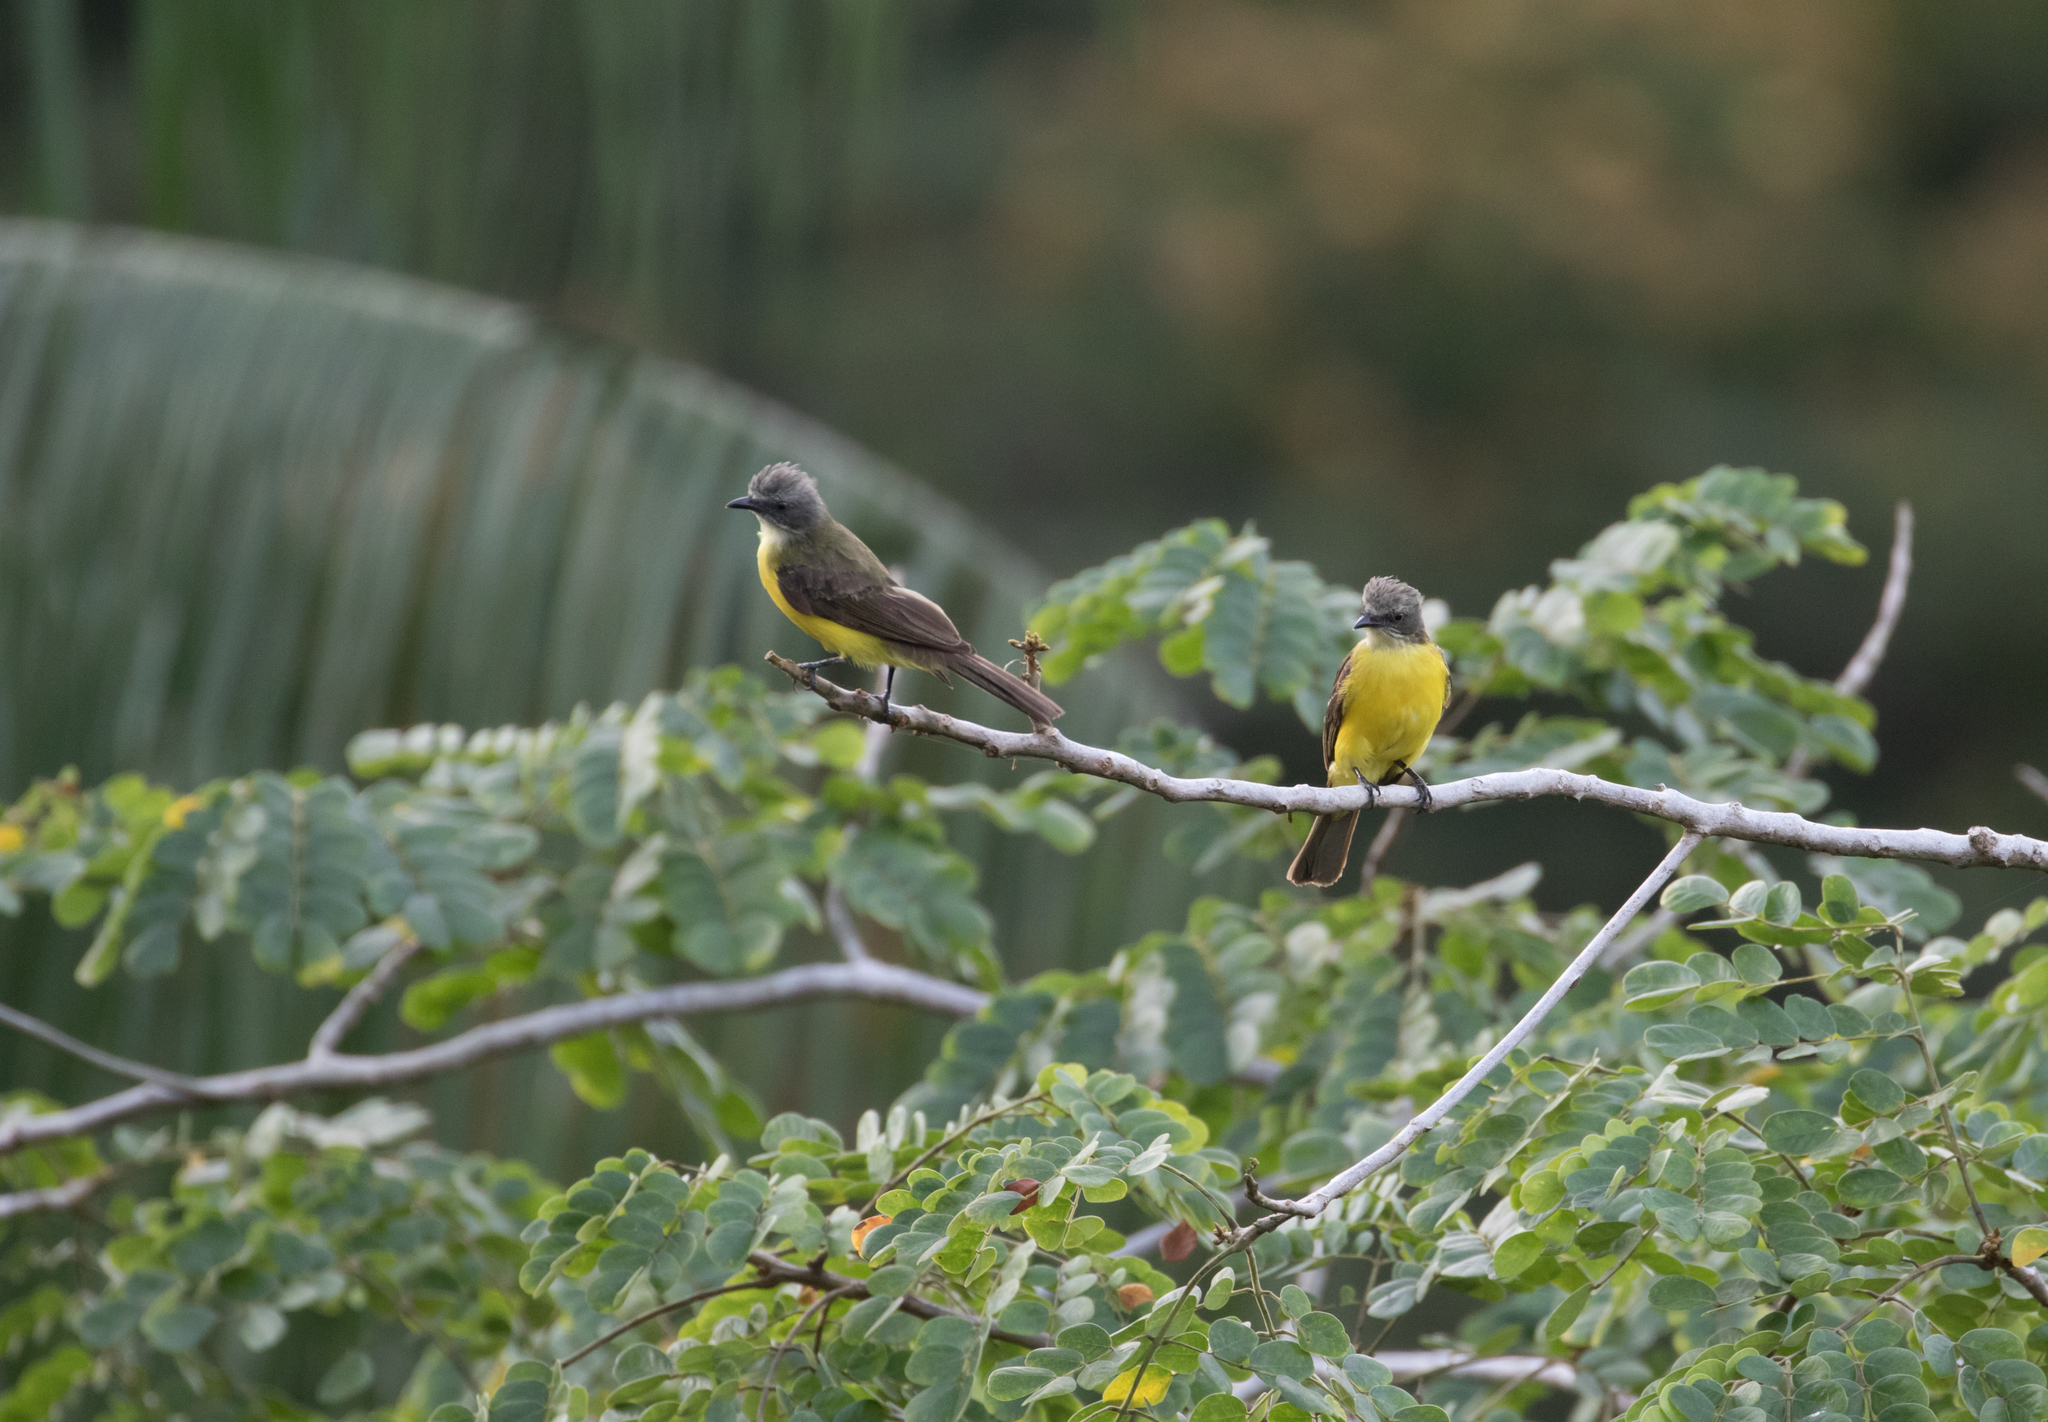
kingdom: Animalia
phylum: Chordata
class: Aves
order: Passeriformes
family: Tyrannidae
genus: Myiozetetes
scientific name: Myiozetetes granadensis
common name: Gray-capped flycatcher
